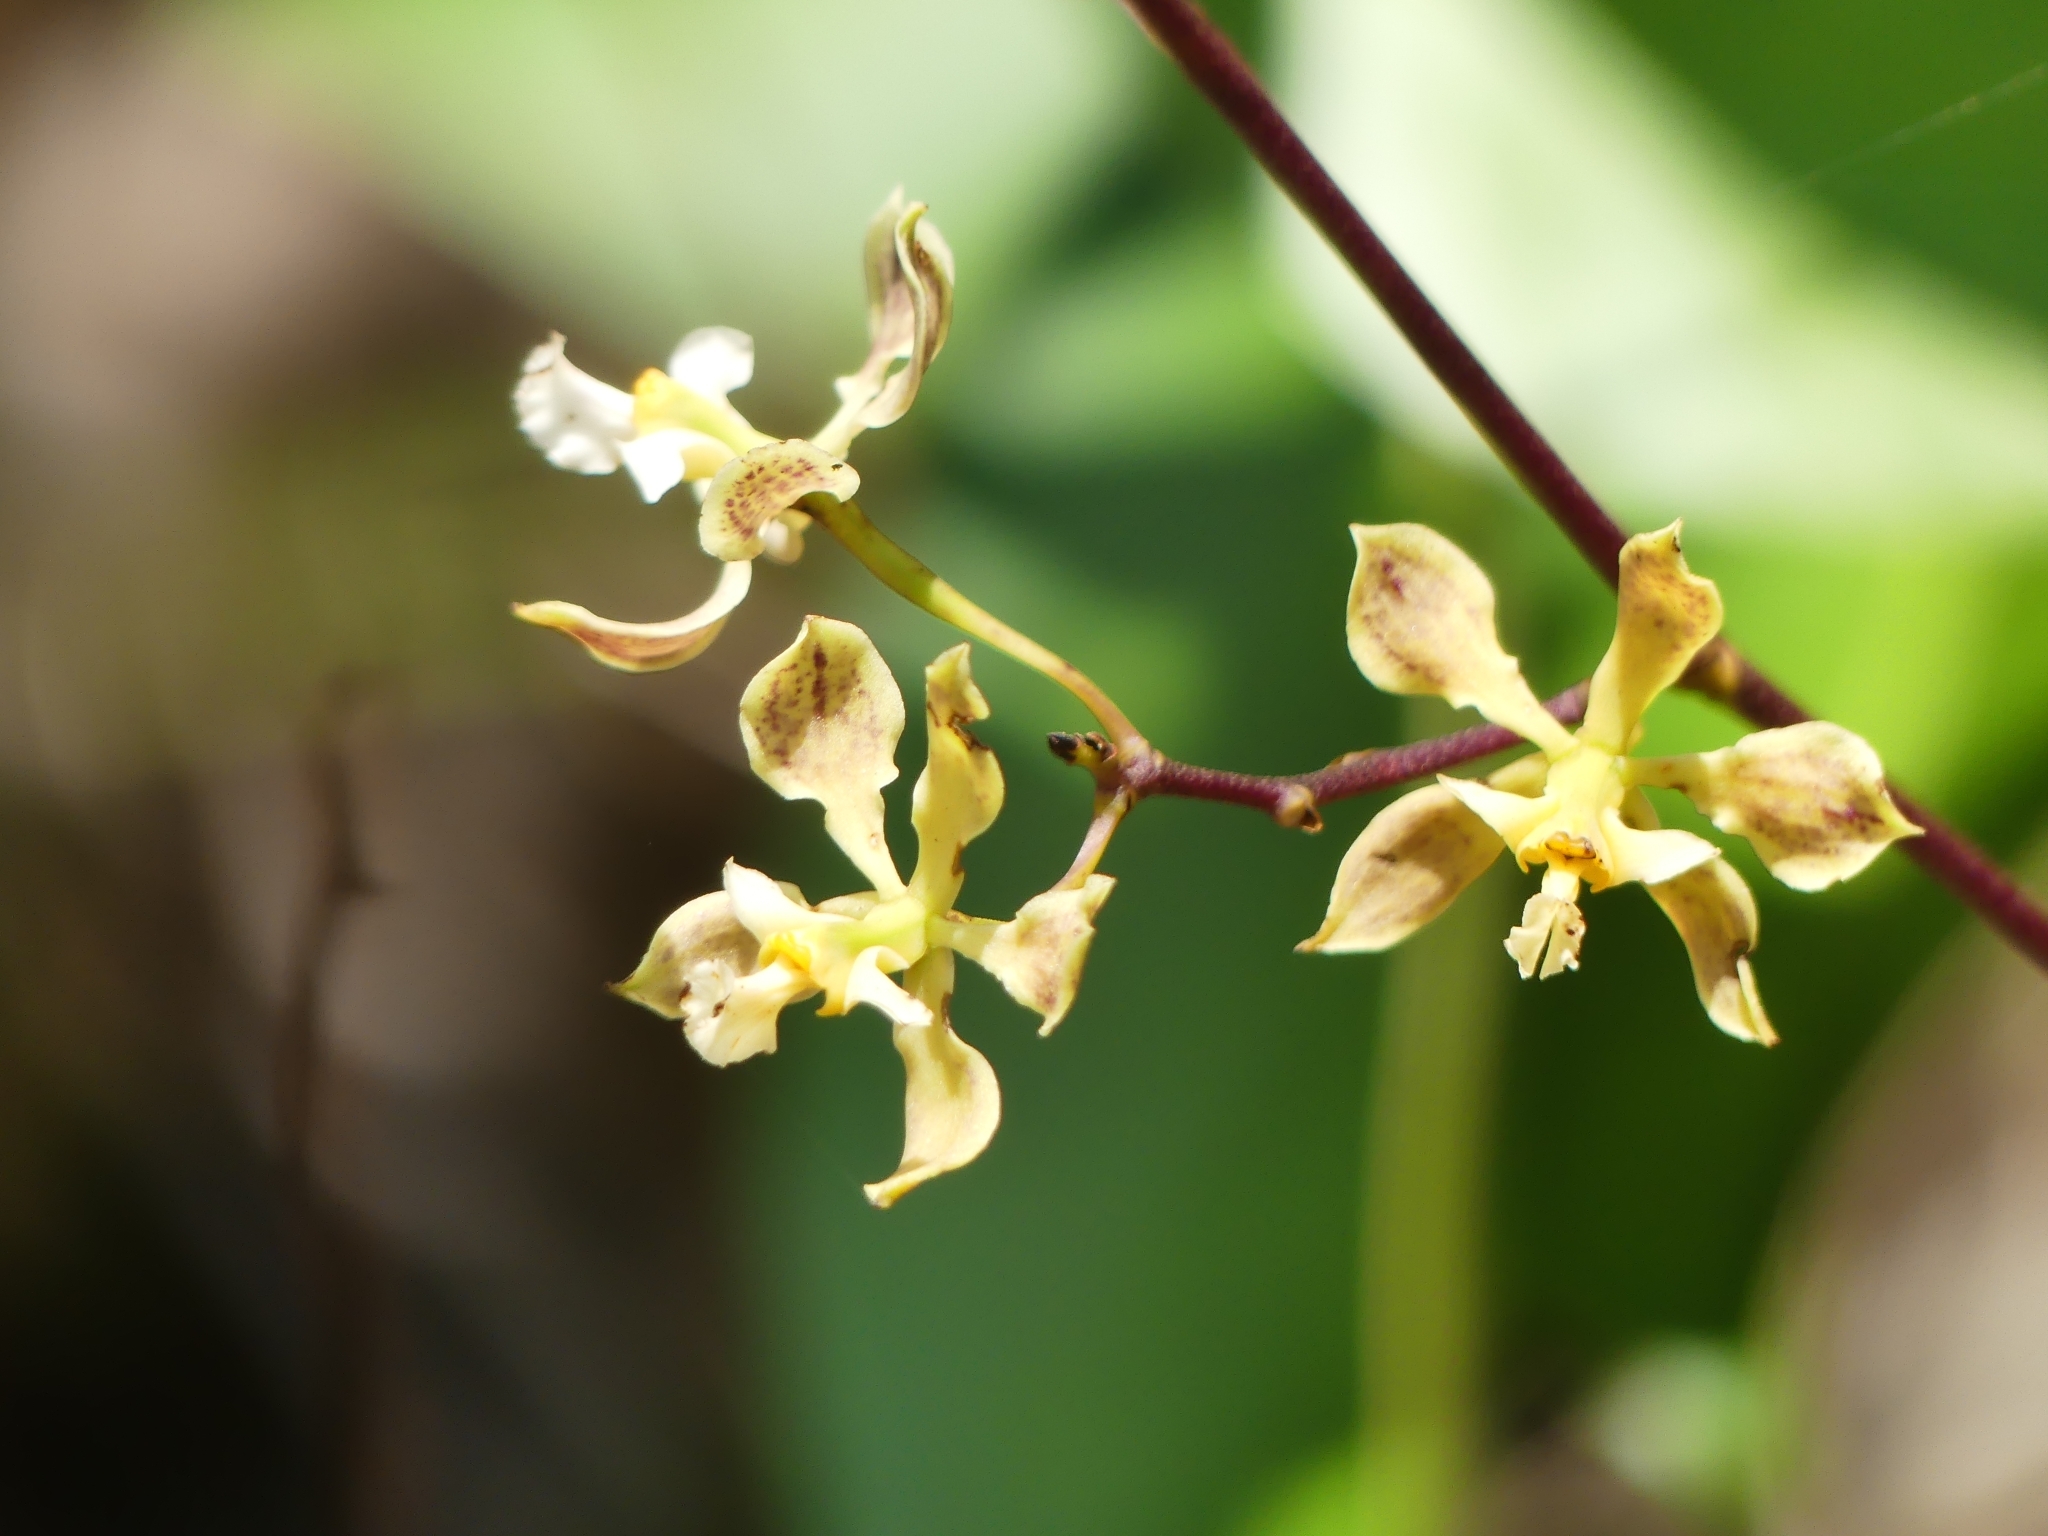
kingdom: Plantae
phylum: Tracheophyta
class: Liliopsida
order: Asparagales
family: Orchidaceae
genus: Encyclia
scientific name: Encyclia granitica
